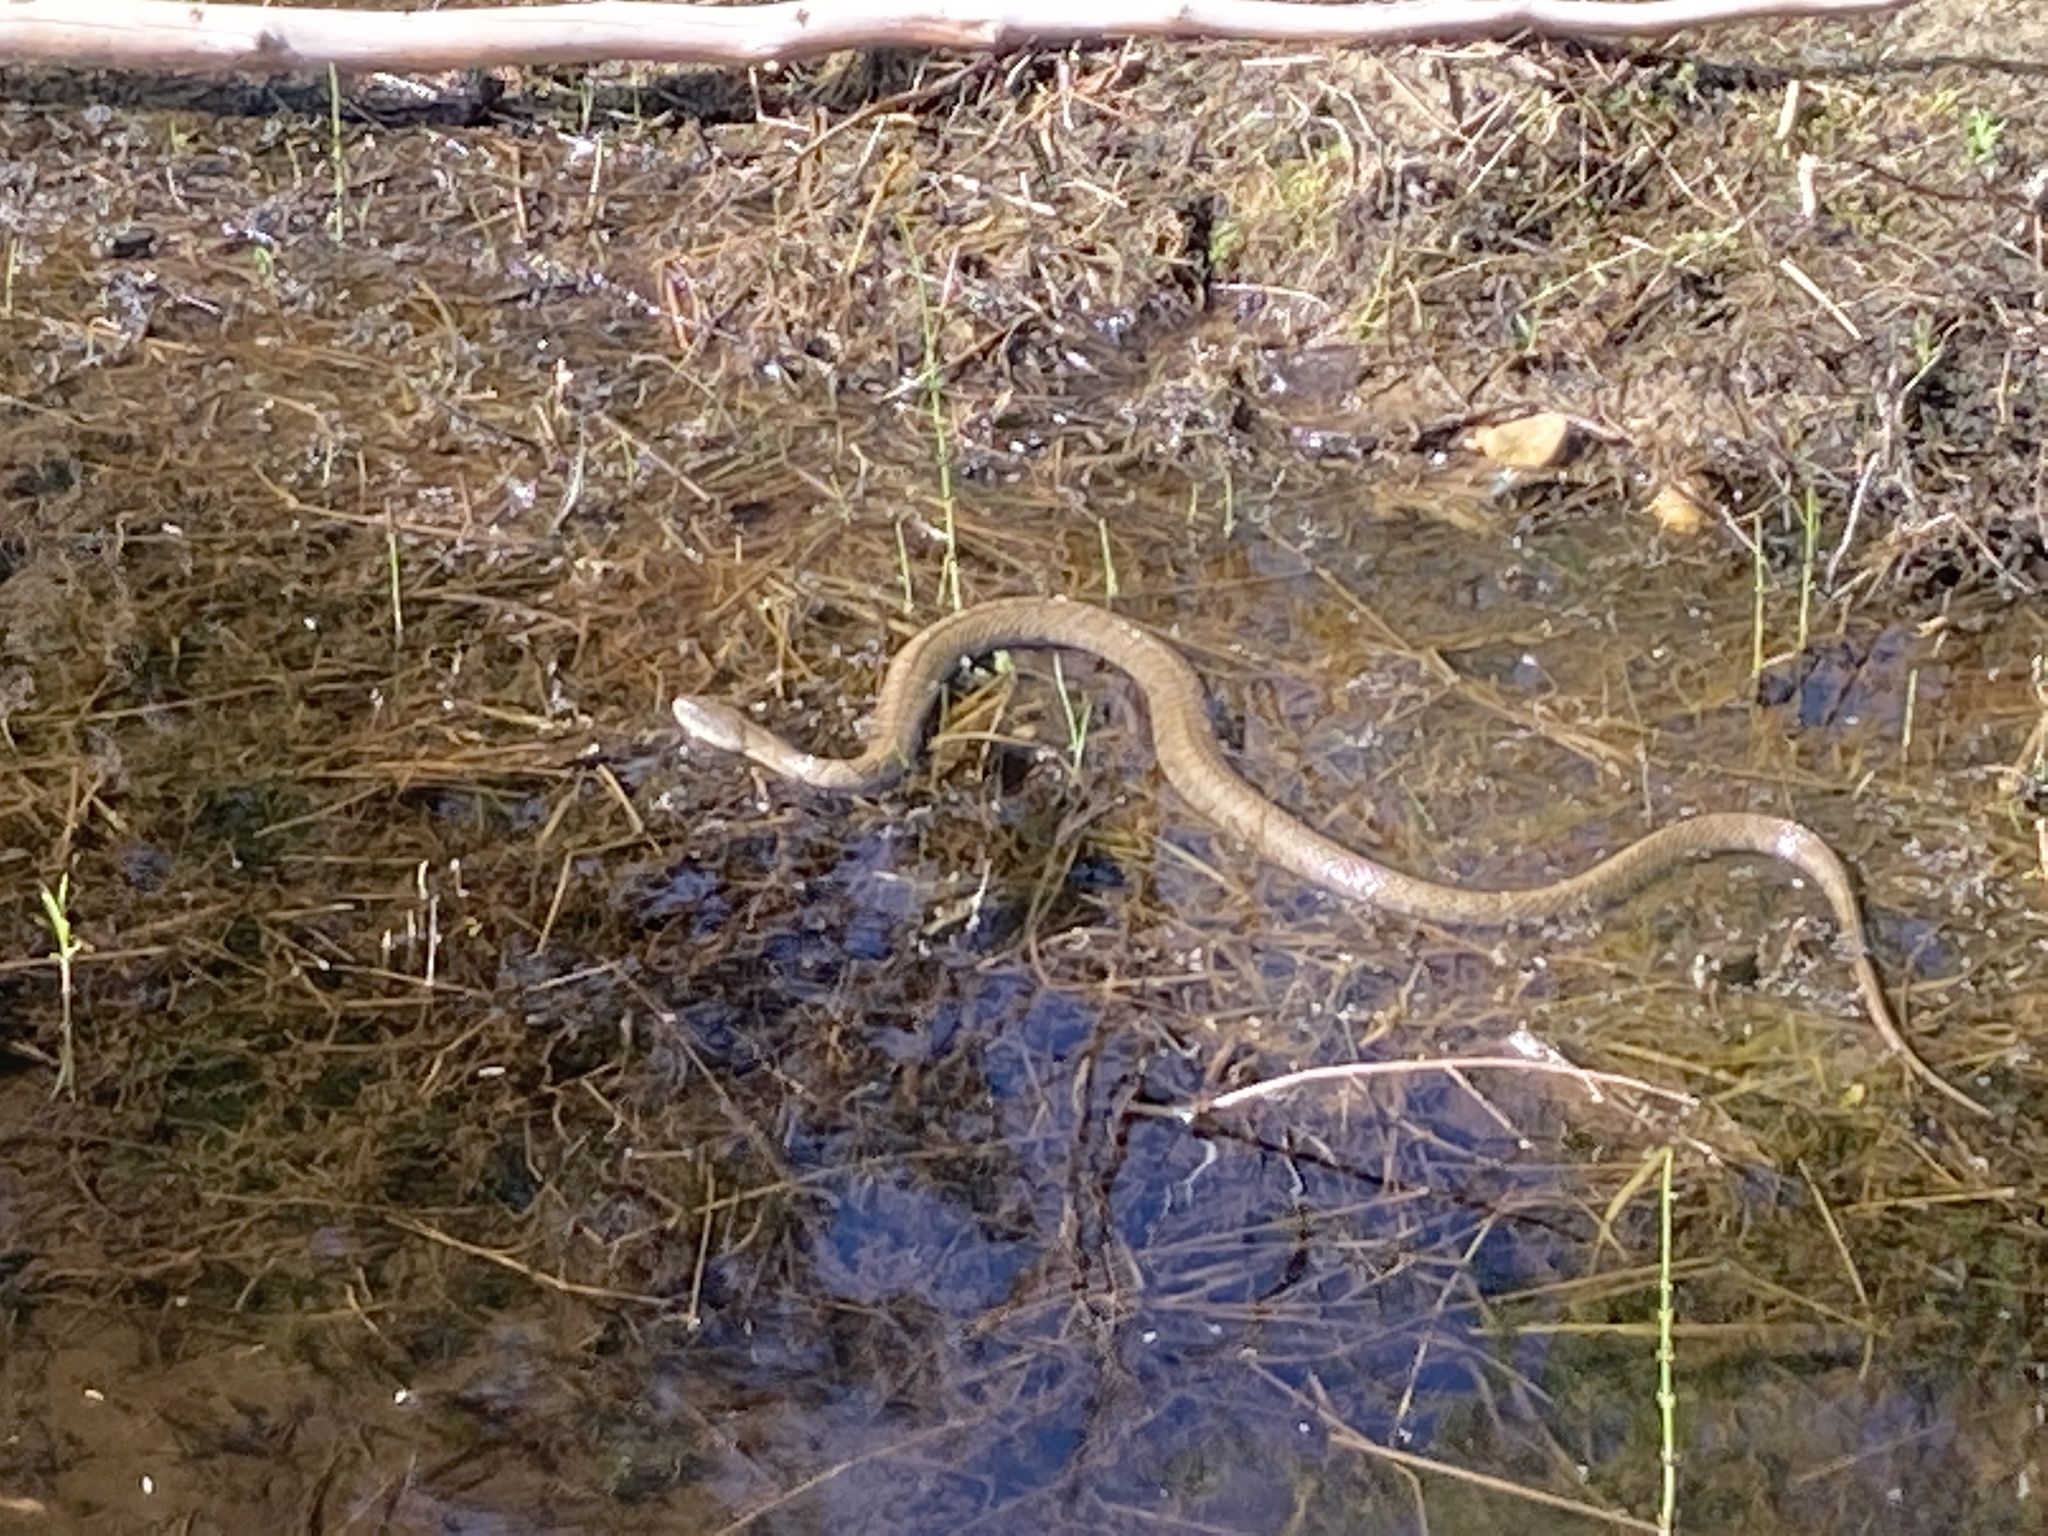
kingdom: Animalia
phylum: Chordata
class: Squamata
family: Colubridae
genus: Nerodia
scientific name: Nerodia sipedon
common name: Northern water snake
